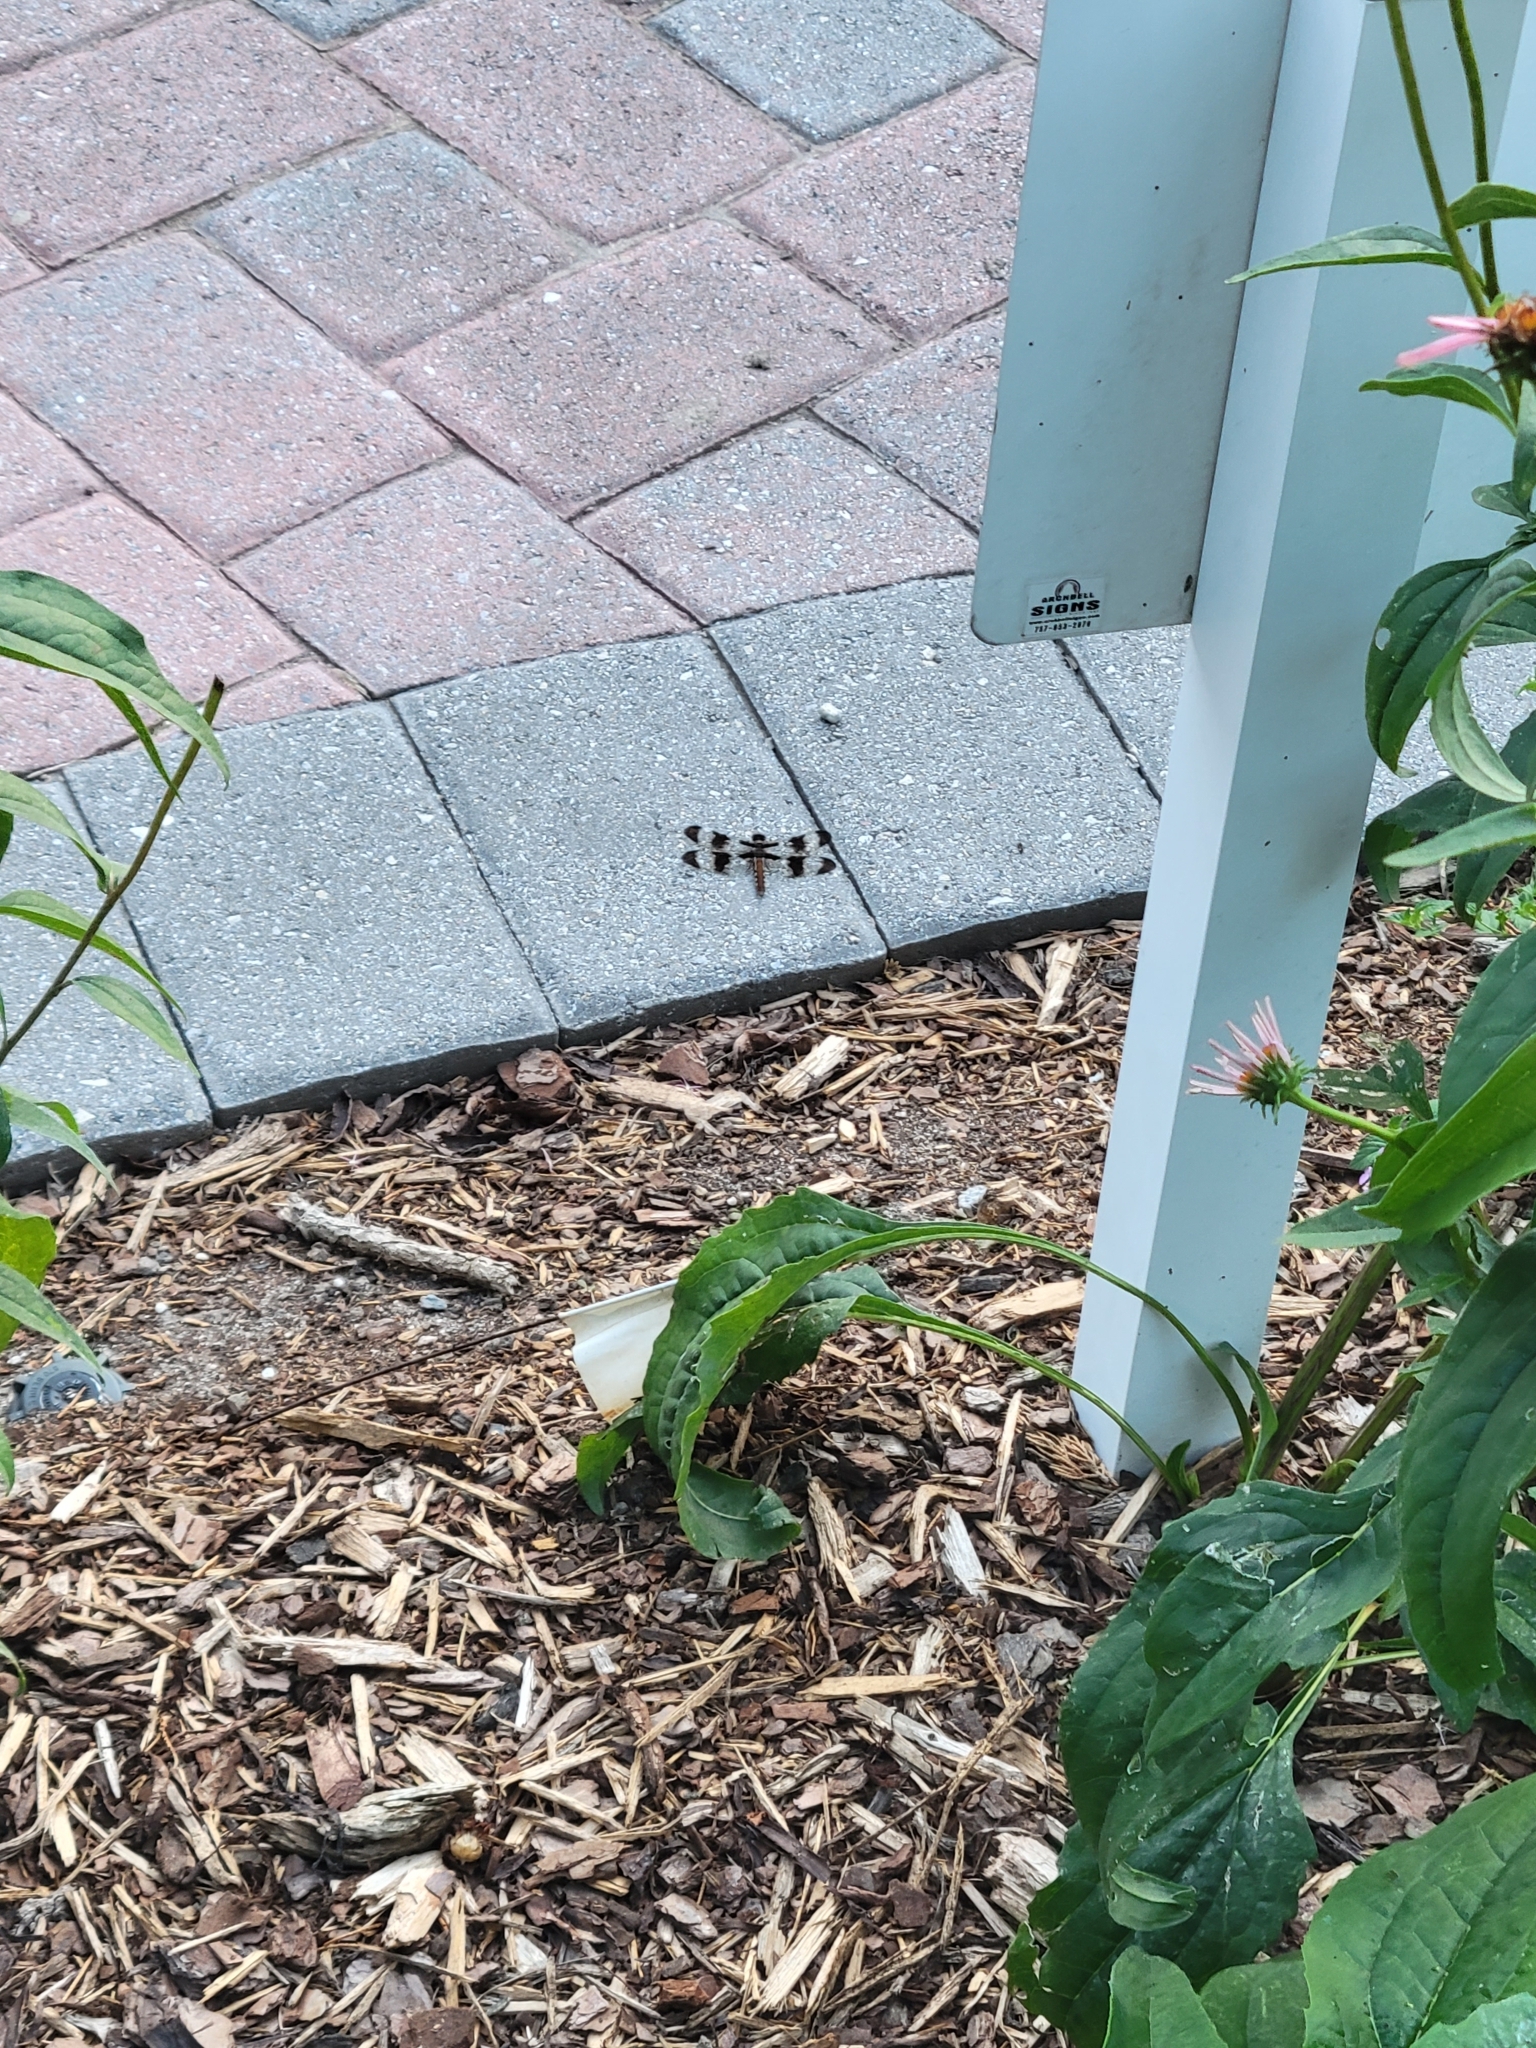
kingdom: Animalia
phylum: Arthropoda
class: Insecta
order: Odonata
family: Libellulidae
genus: Plathemis
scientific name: Plathemis lydia
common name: Common whitetail
